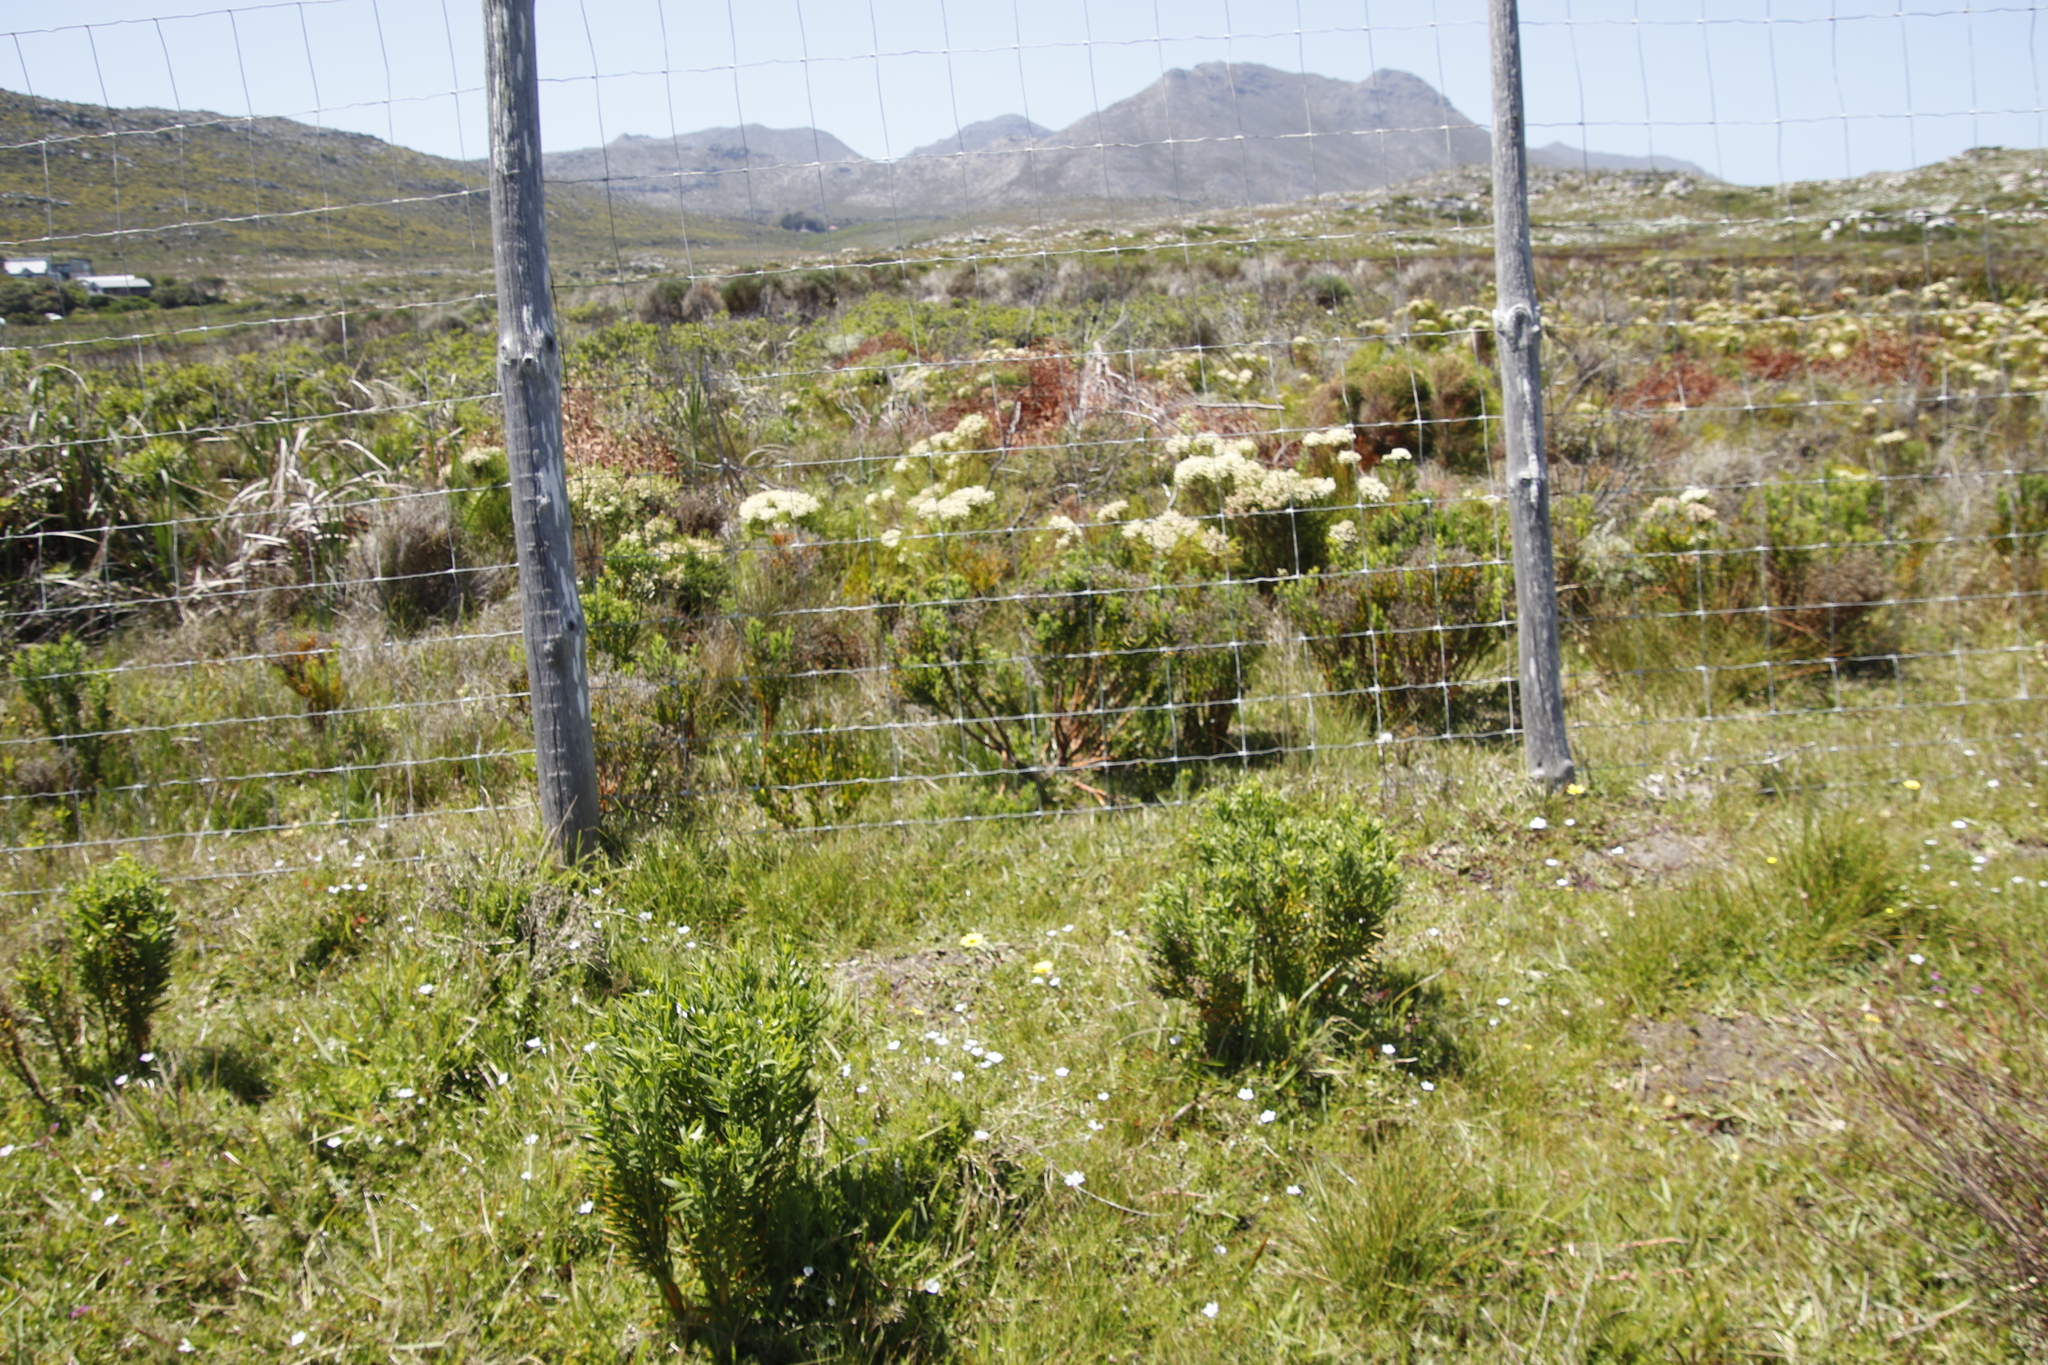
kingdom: Plantae
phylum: Tracheophyta
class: Magnoliopsida
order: Gentianales
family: Gentianaceae
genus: Orphium
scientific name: Orphium frutescens
